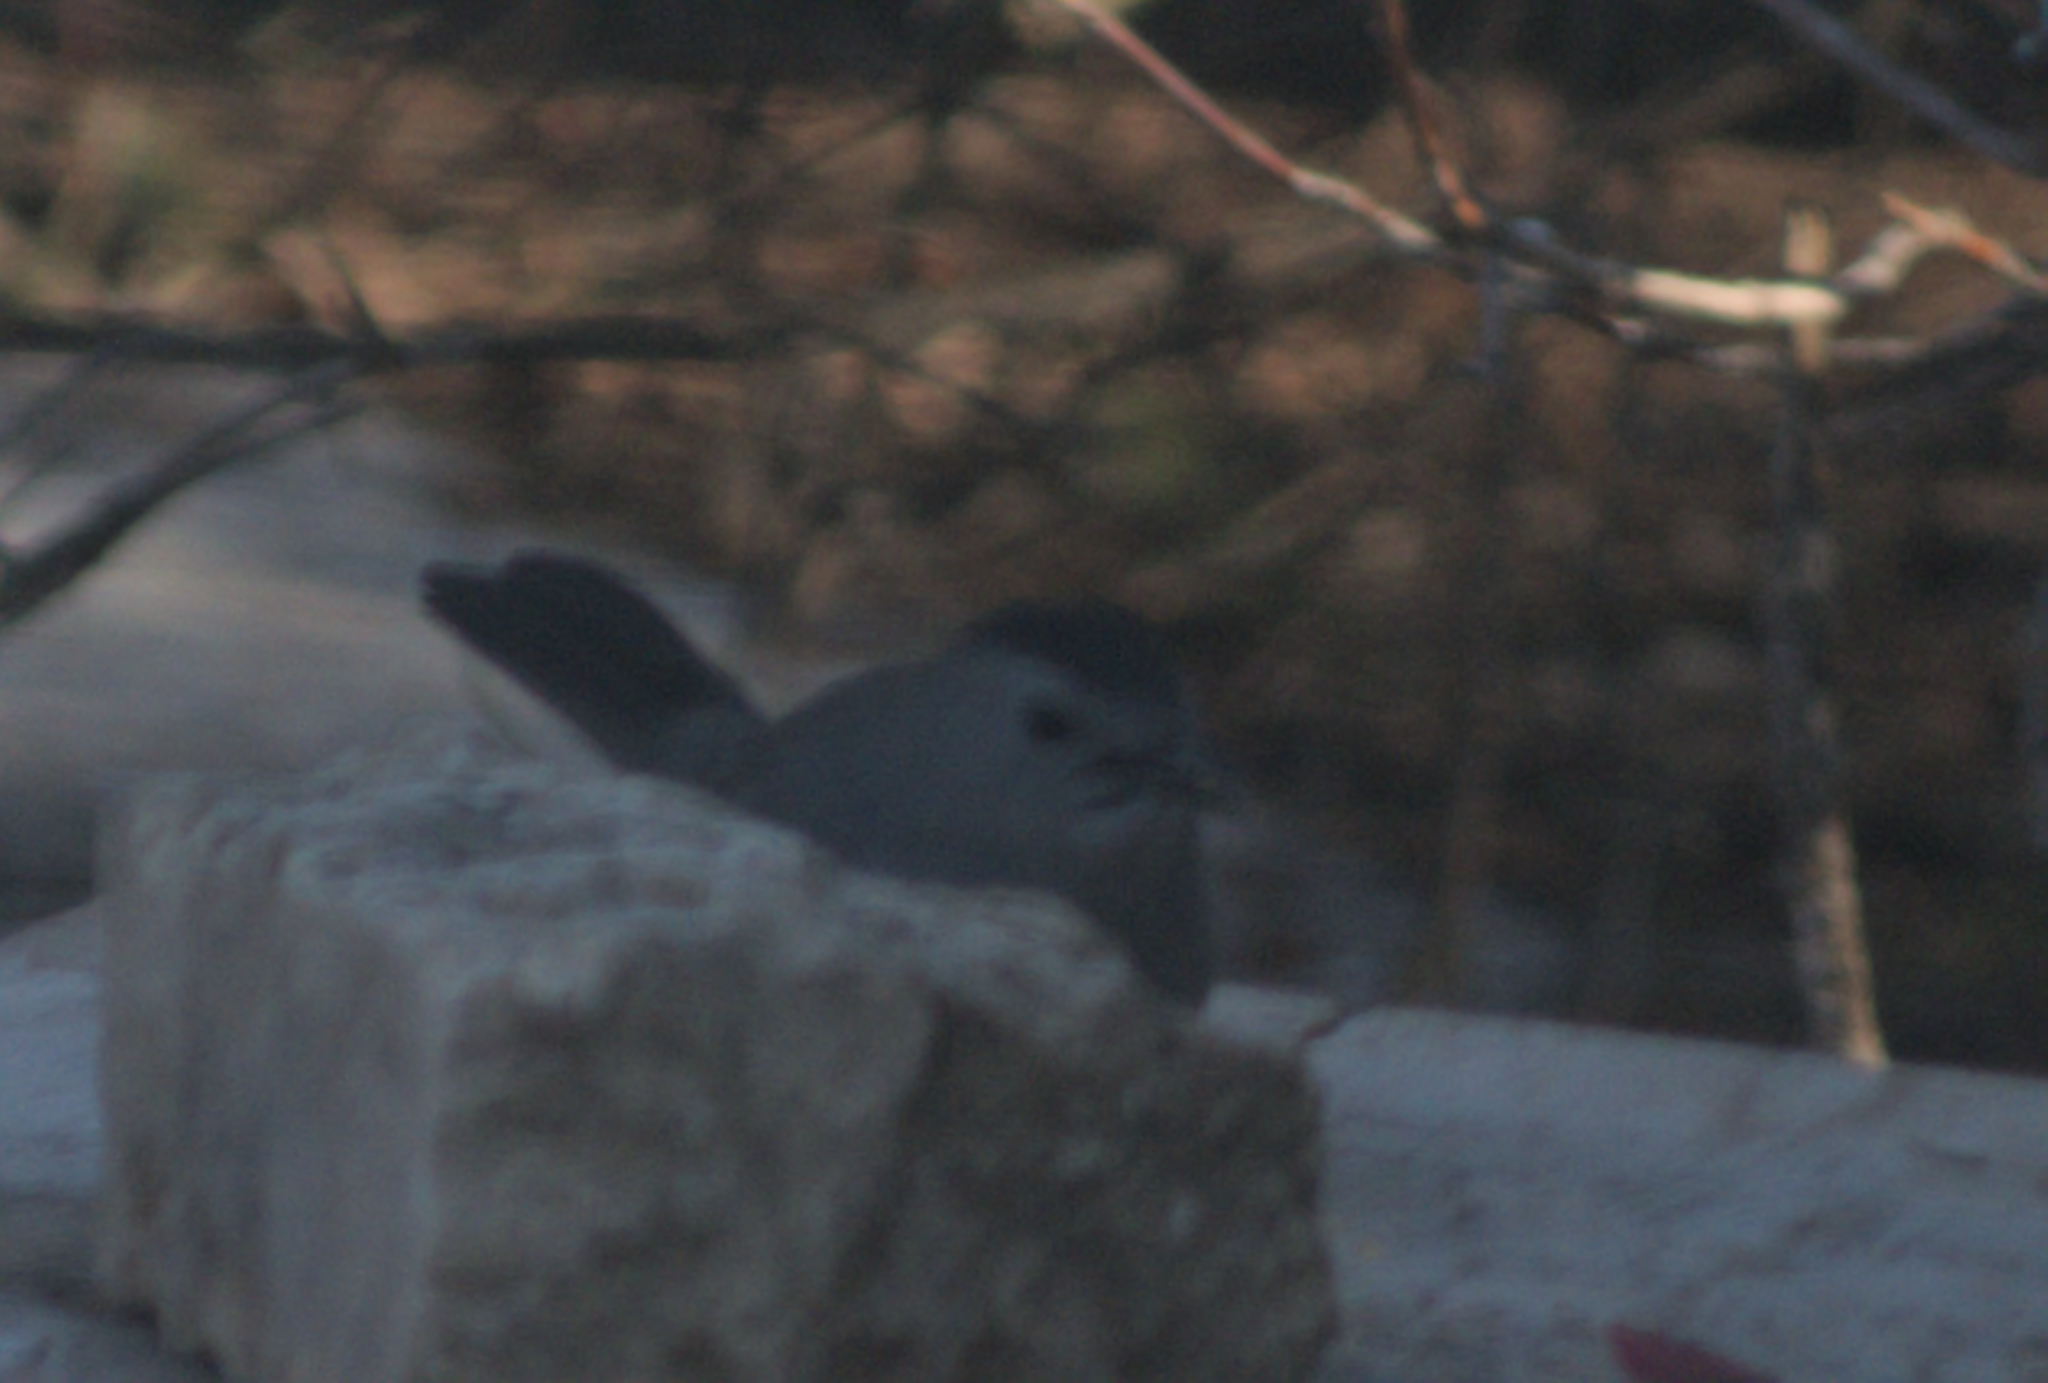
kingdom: Animalia
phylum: Chordata
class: Aves
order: Passeriformes
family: Mimidae
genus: Dumetella
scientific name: Dumetella carolinensis
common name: Gray catbird
